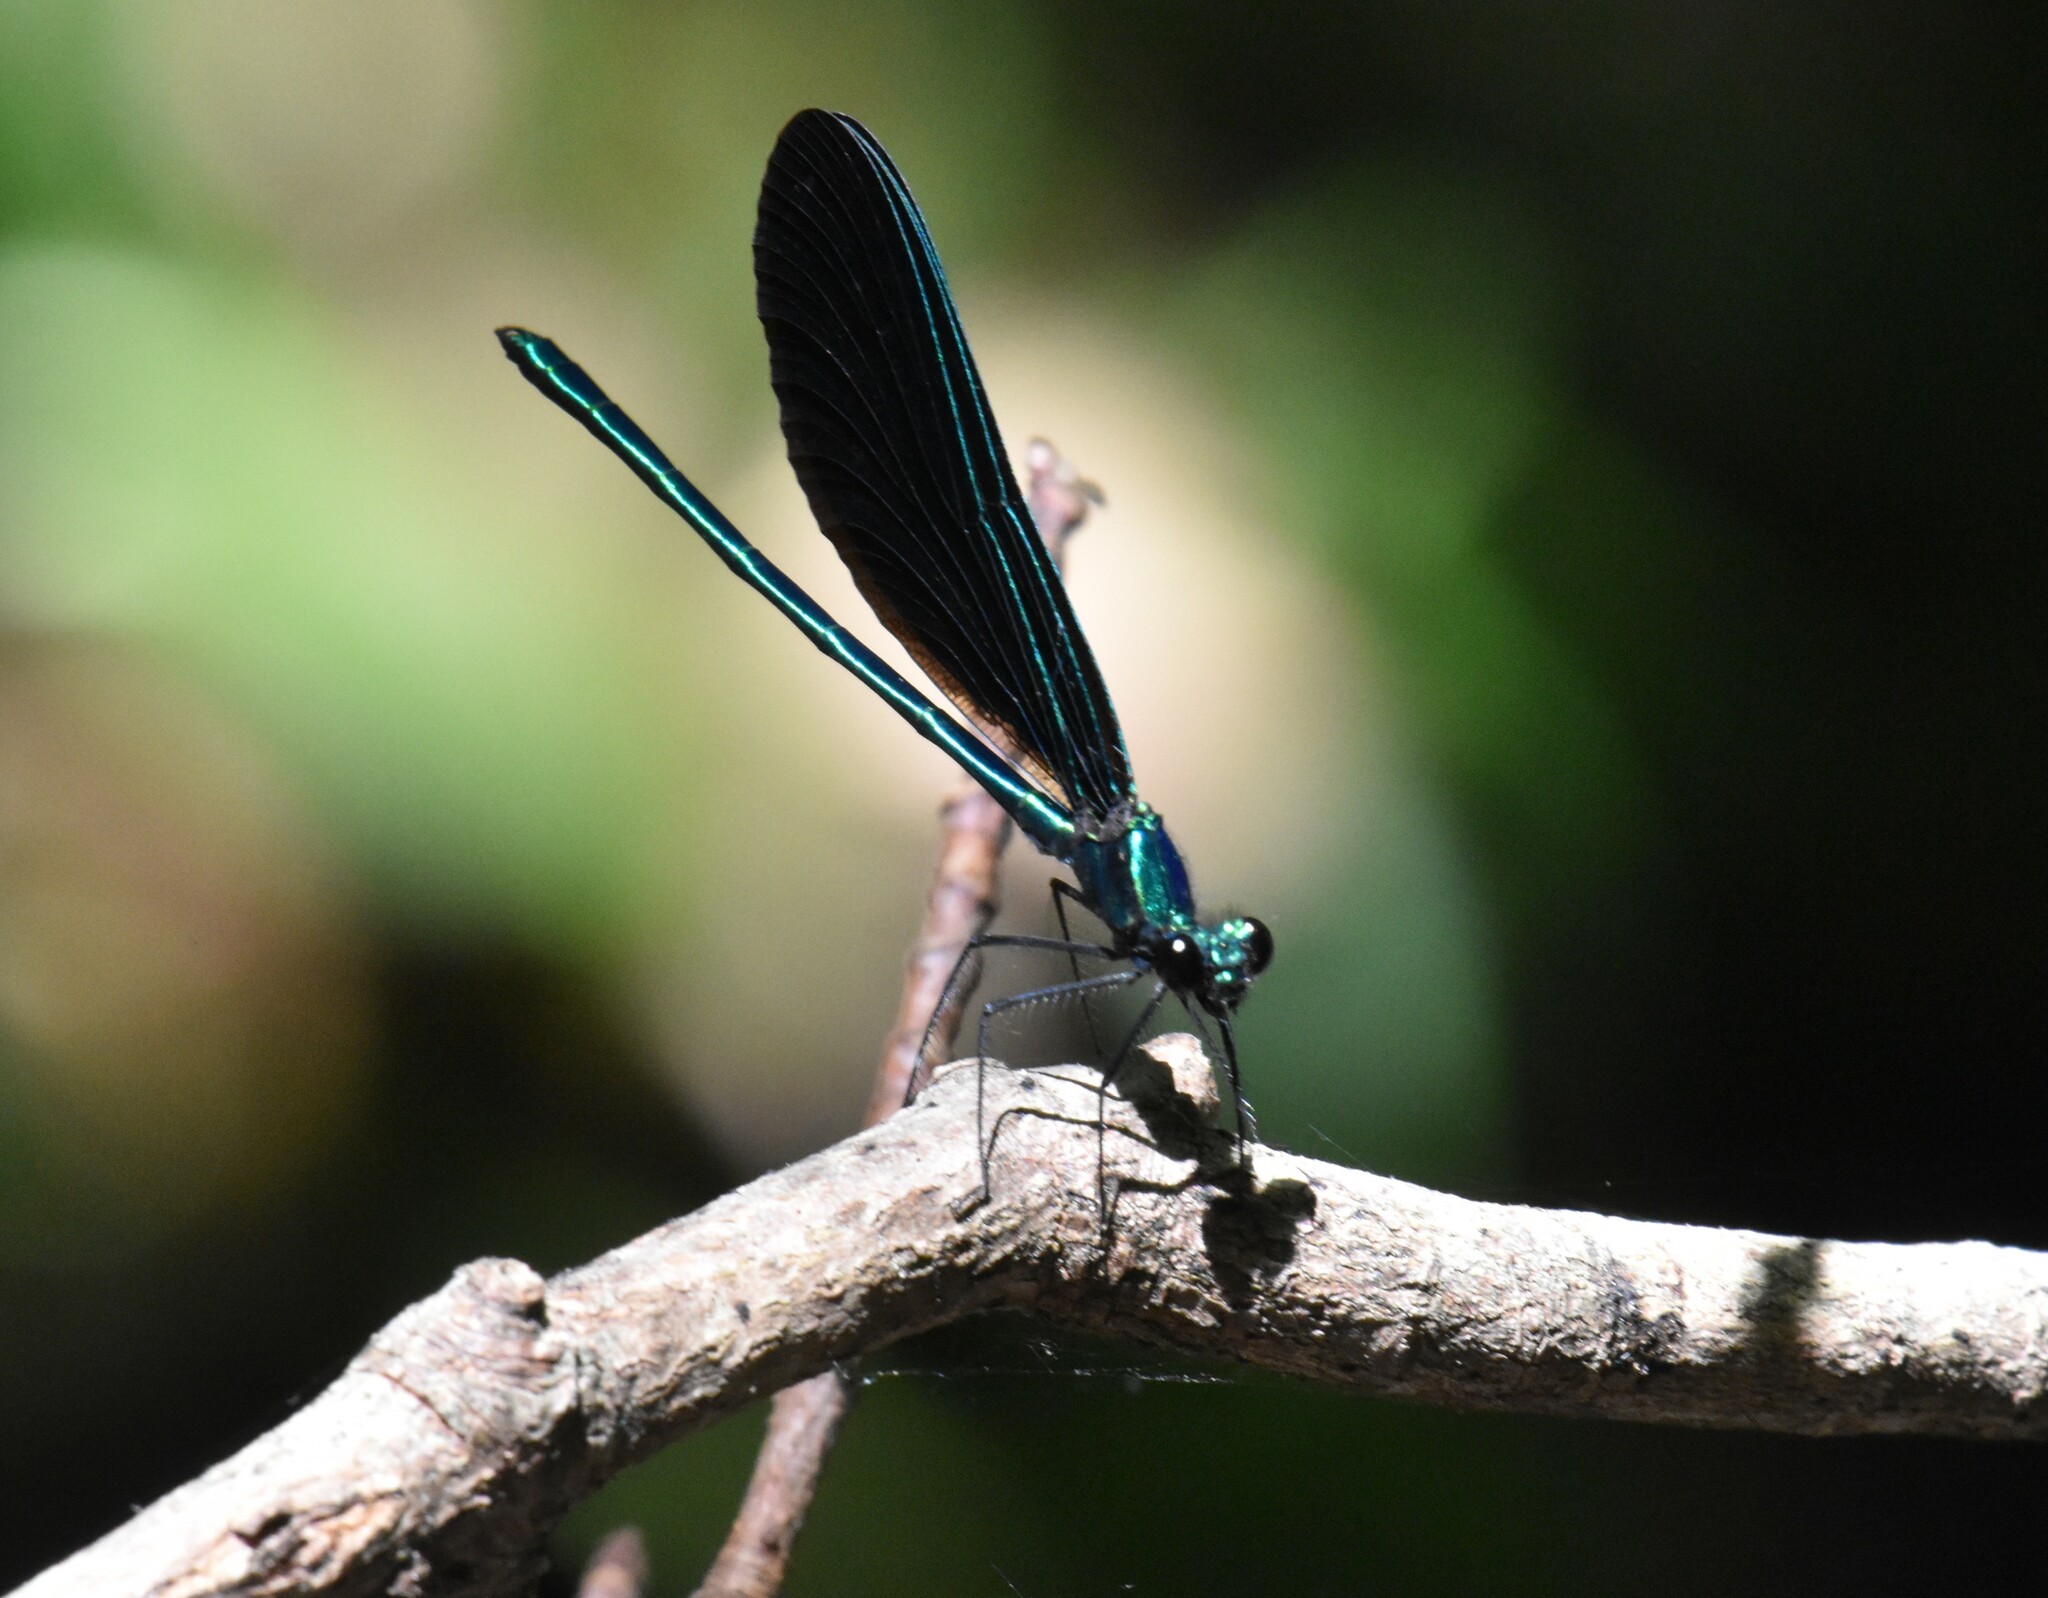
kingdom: Animalia
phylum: Arthropoda
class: Insecta
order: Odonata
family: Calopterygidae
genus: Calopteryx
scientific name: Calopteryx maculata
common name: Ebony jewelwing
